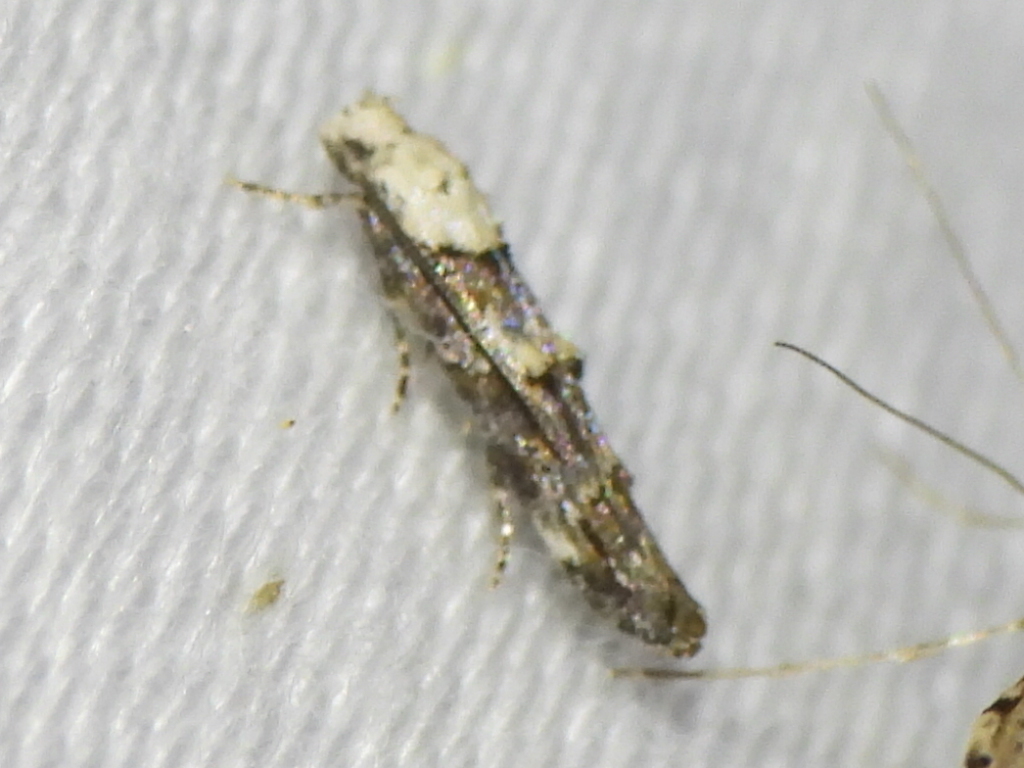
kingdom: Animalia
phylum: Arthropoda
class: Insecta
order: Lepidoptera
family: Momphidae
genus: Mompha
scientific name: Mompha albocapitella
